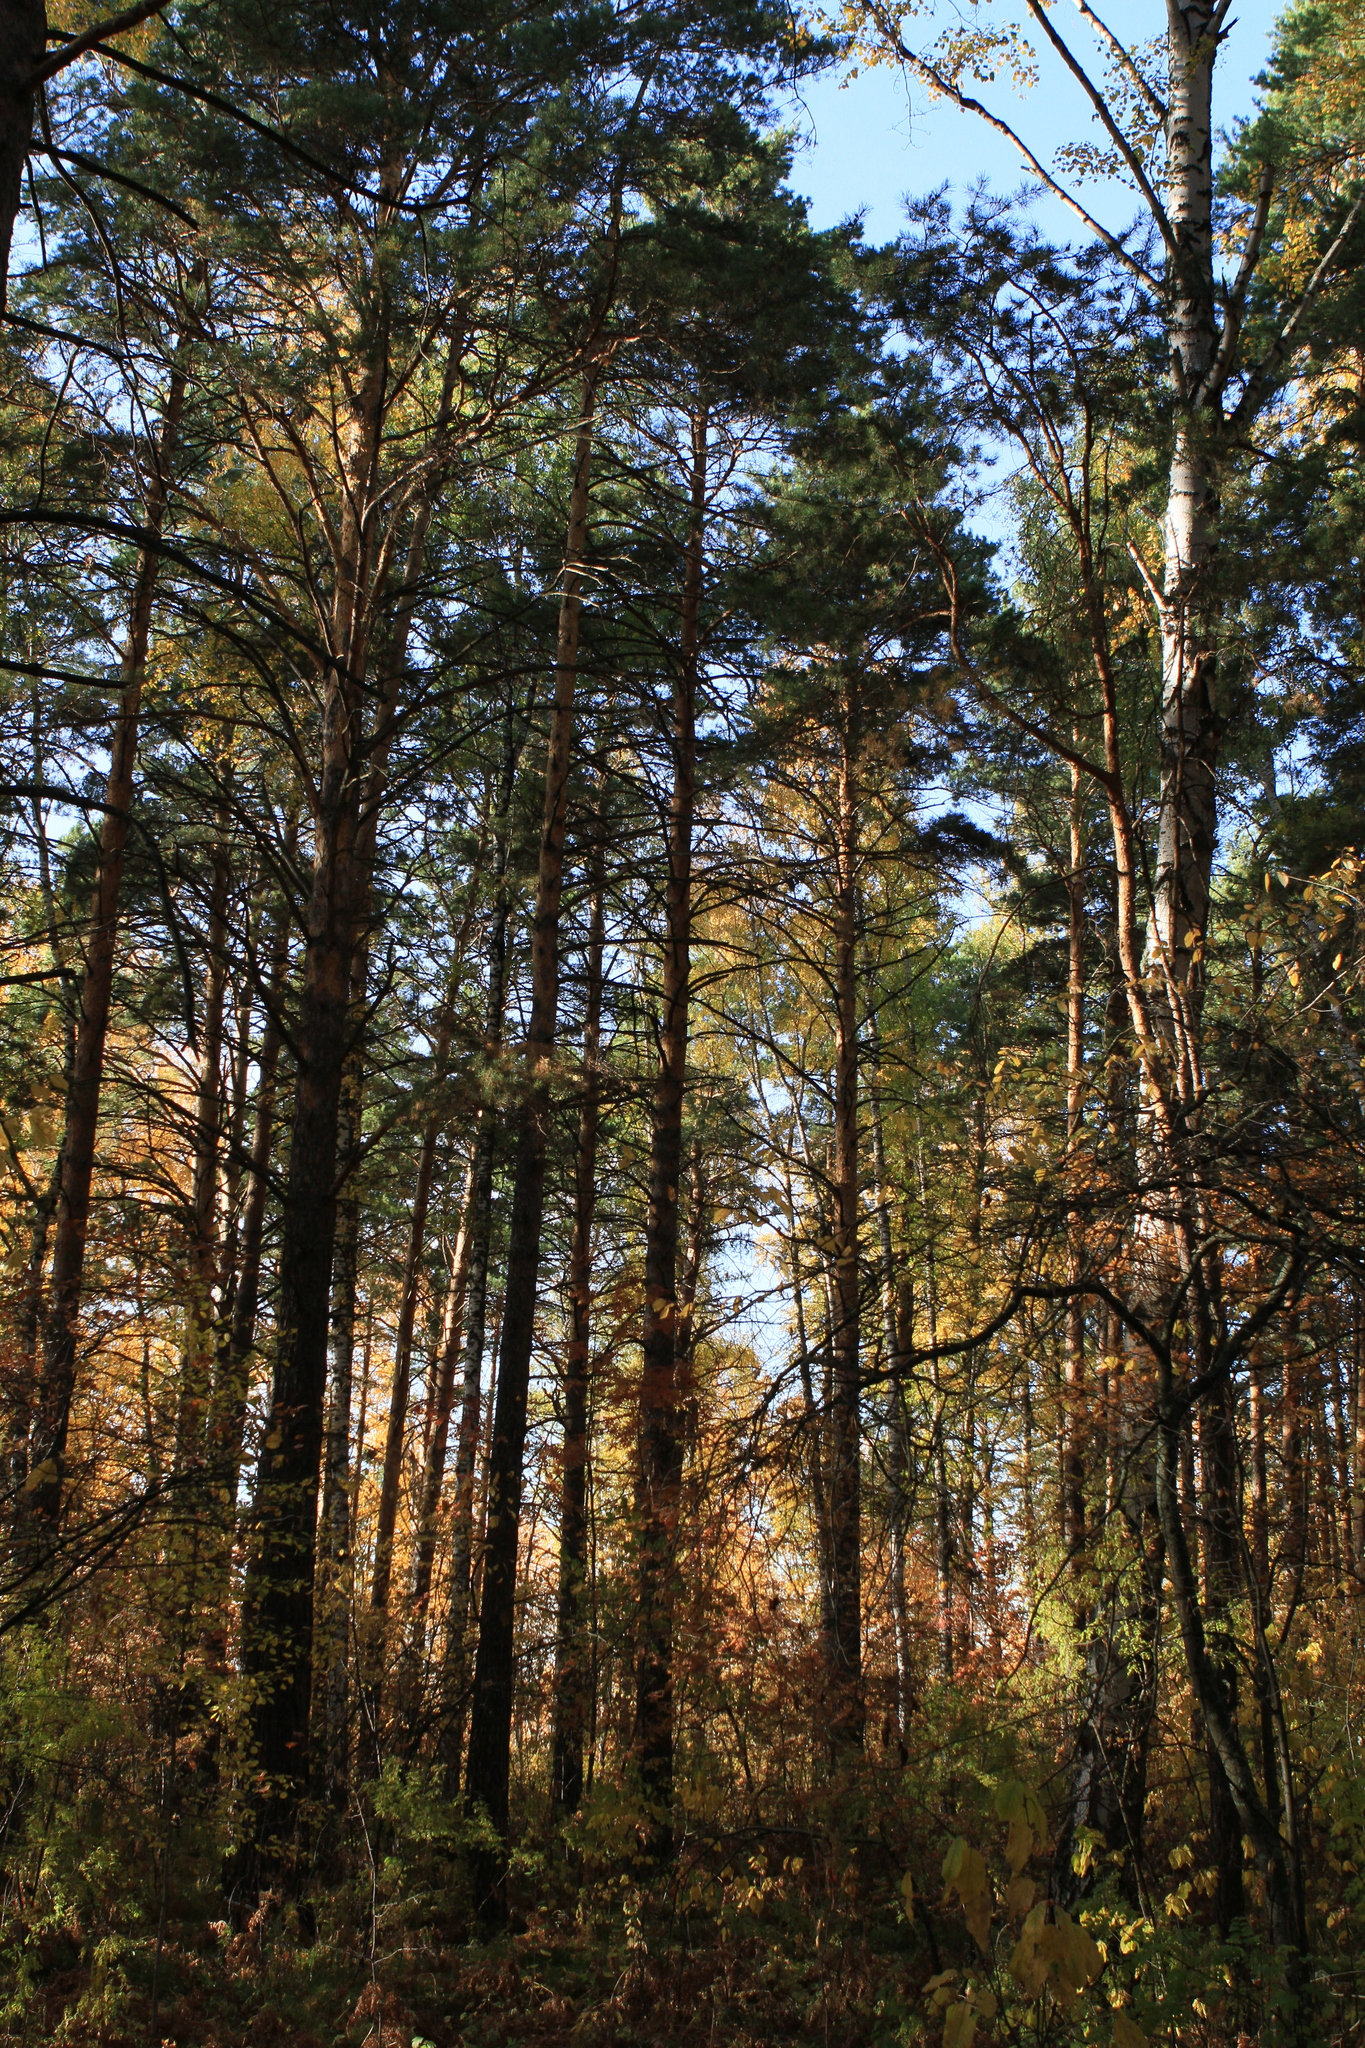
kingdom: Plantae
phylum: Tracheophyta
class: Pinopsida
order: Pinales
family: Pinaceae
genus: Pinus
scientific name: Pinus sylvestris
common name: Scots pine
